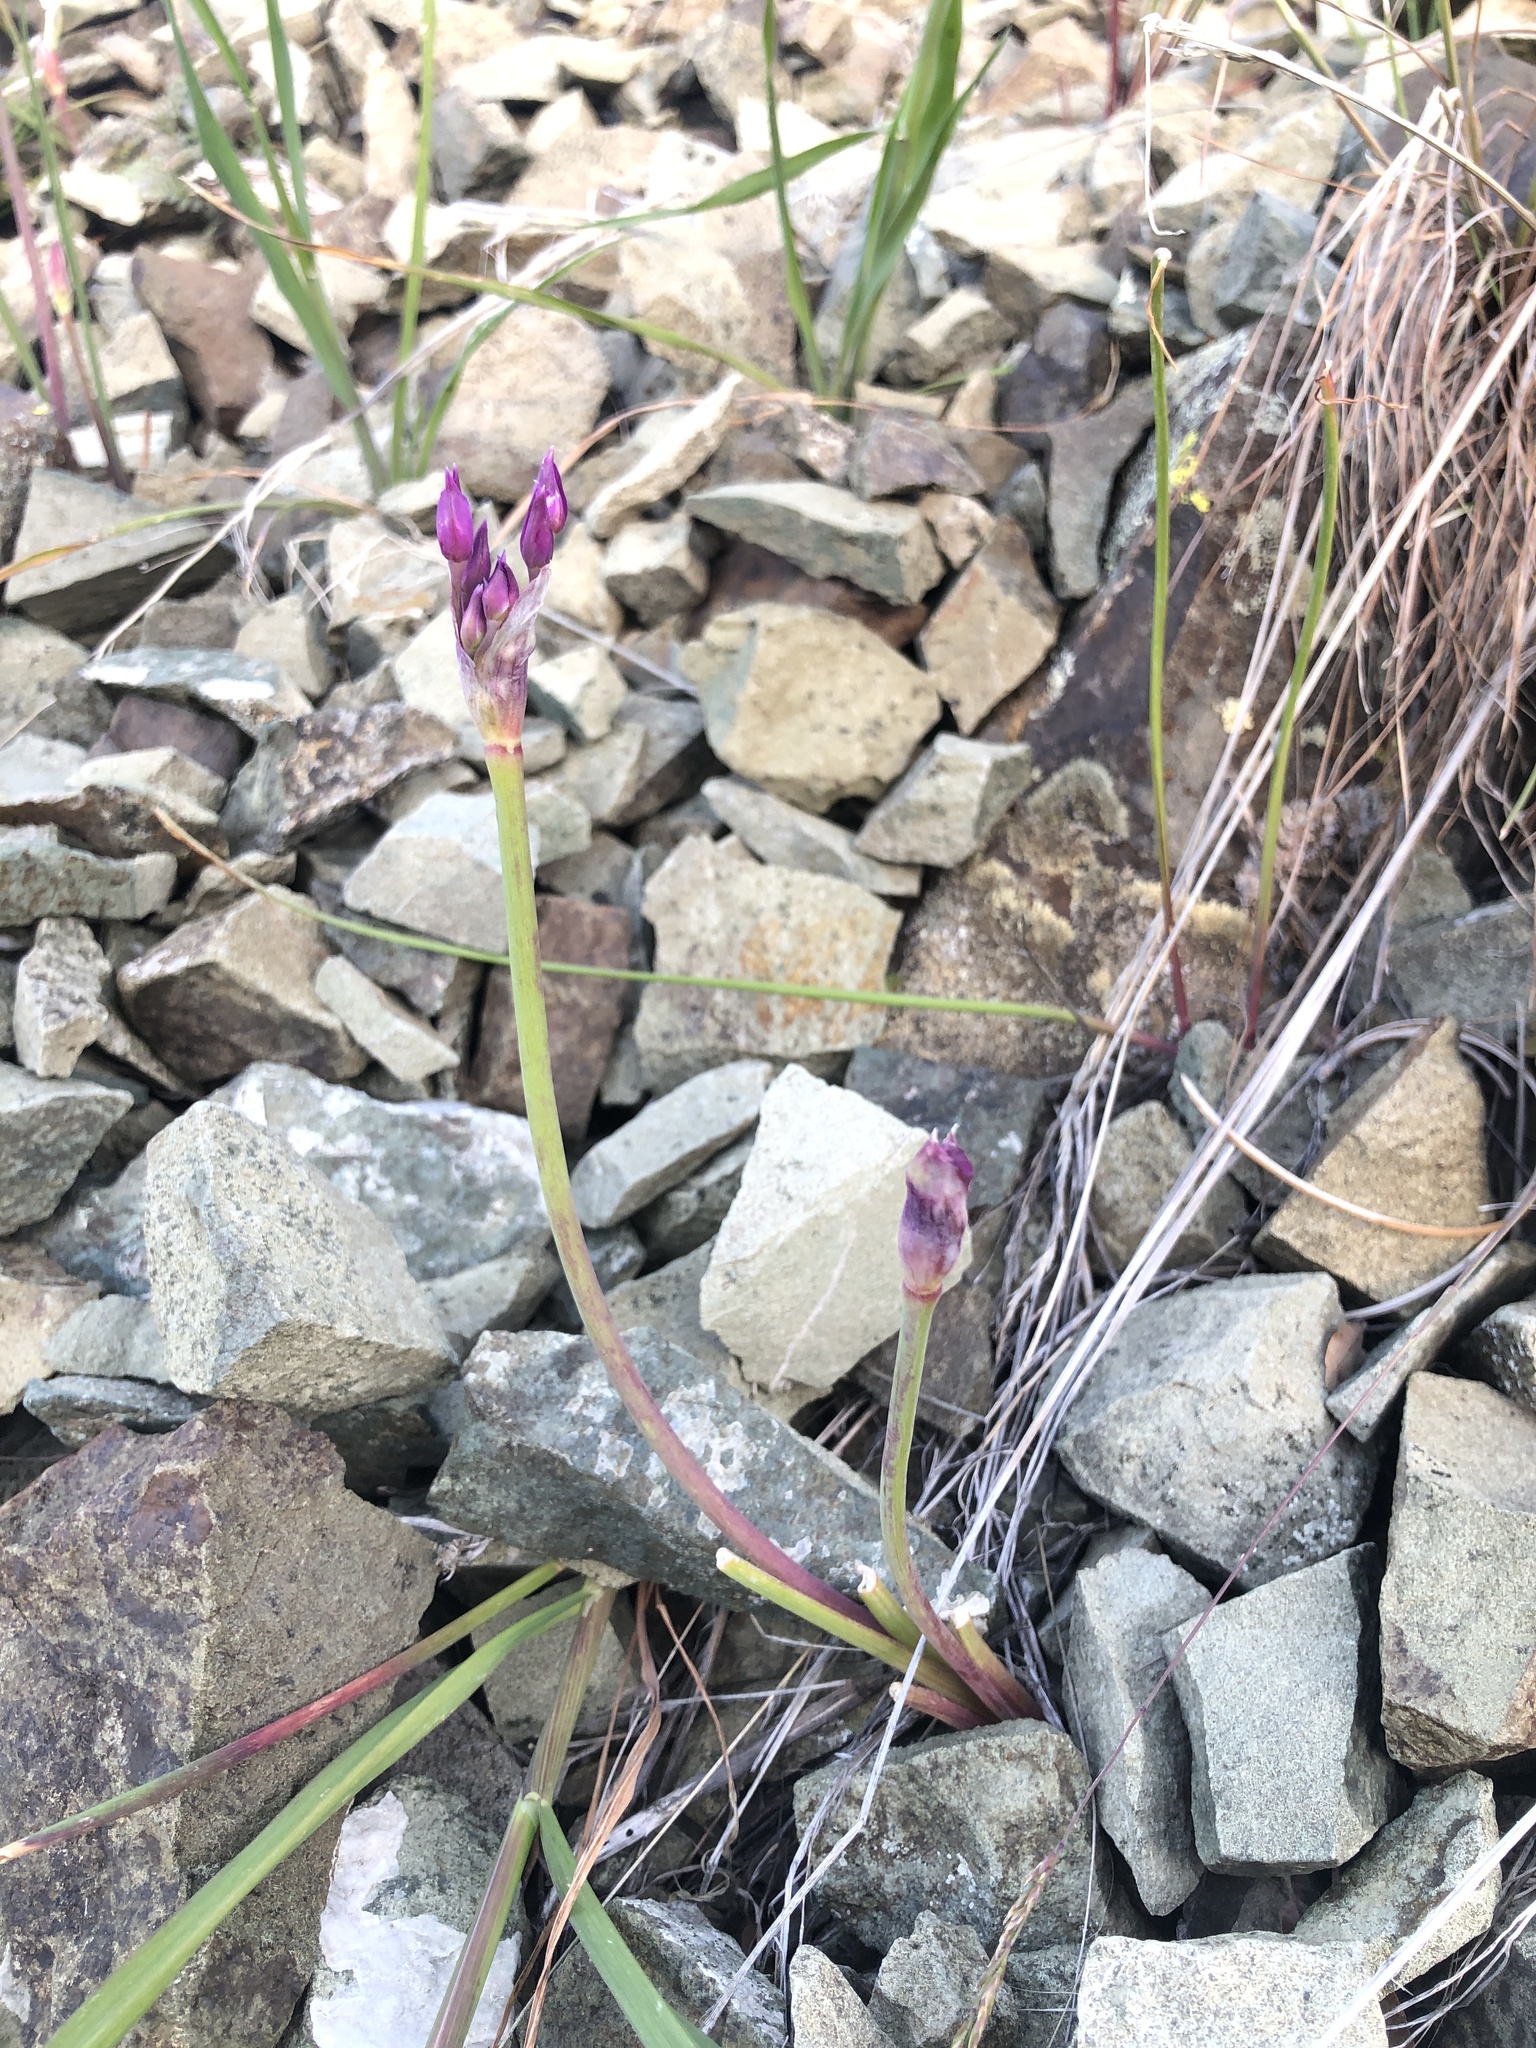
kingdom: Plantae
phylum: Tracheophyta
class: Liliopsida
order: Asparagales
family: Amaryllidaceae
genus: Allium
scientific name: Allium crispum
